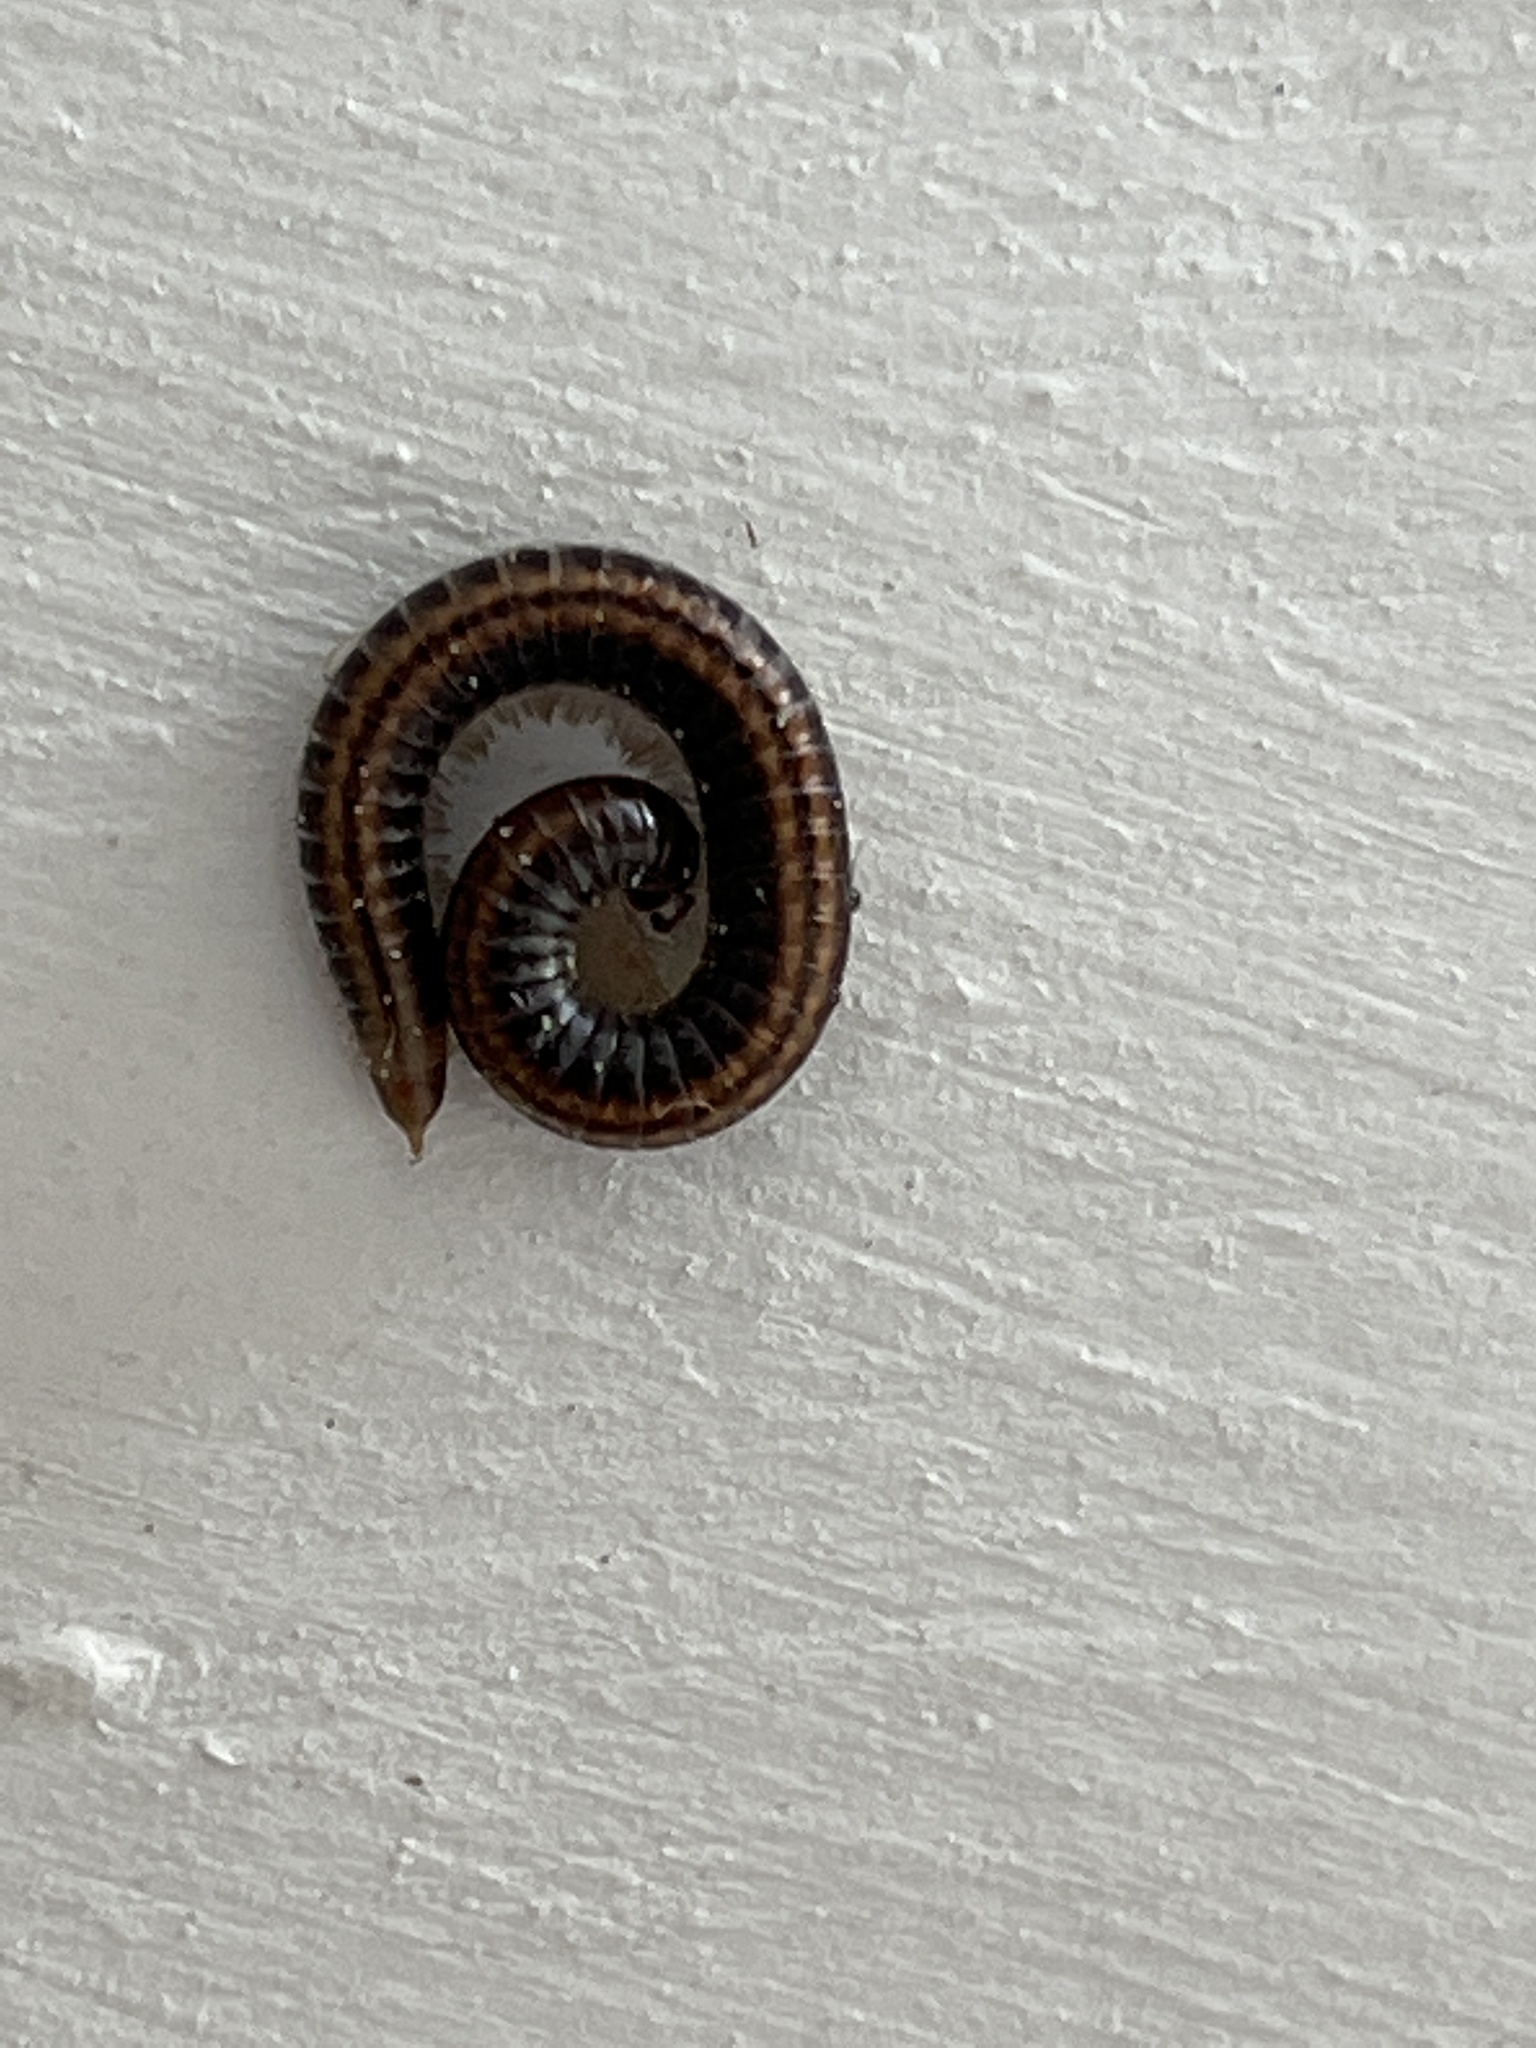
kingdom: Animalia
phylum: Arthropoda
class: Diplopoda
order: Julida
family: Julidae
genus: Ommatoiulus
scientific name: Ommatoiulus sabulosus
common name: Striped millipede
